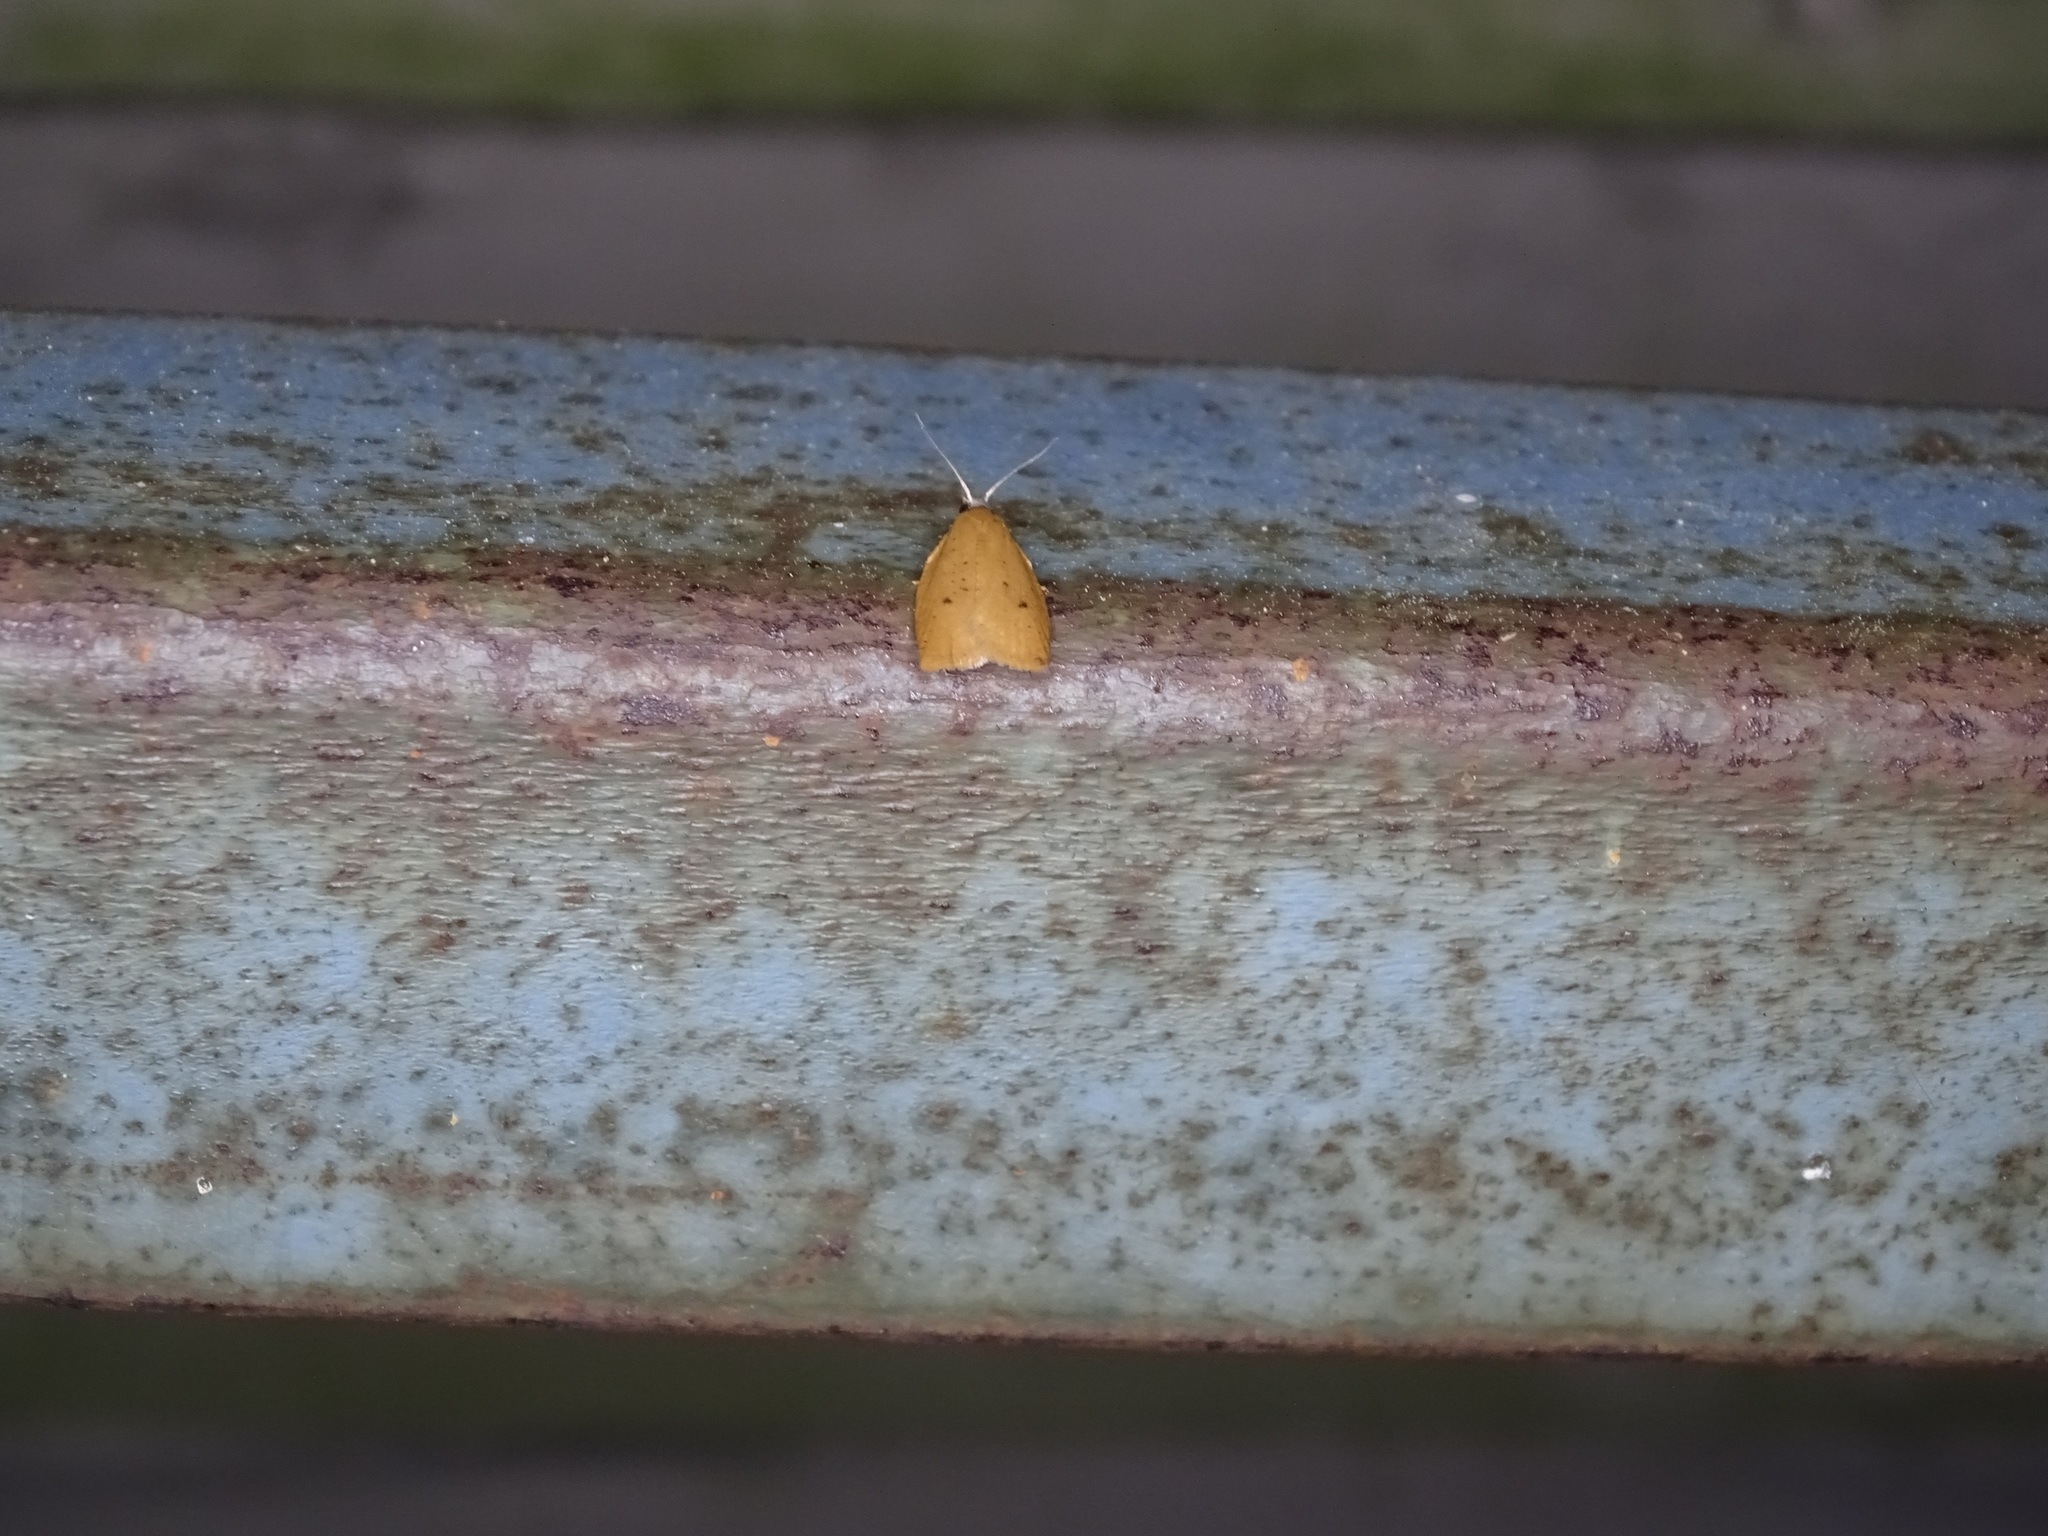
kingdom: Animalia
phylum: Arthropoda
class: Insecta
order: Lepidoptera
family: Tortricidae
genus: Sparganothoides
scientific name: Sparganothoides lentiginosana
